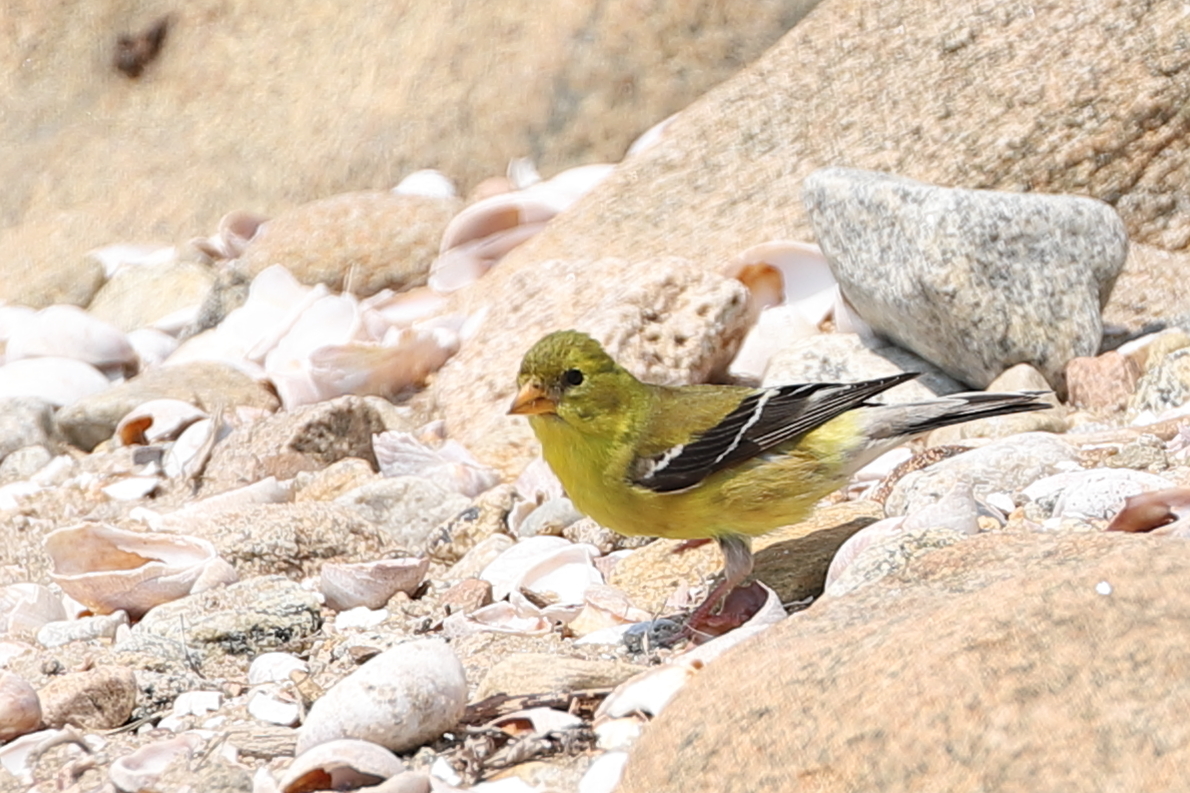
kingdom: Animalia
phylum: Chordata
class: Aves
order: Passeriformes
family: Fringillidae
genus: Spinus
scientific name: Spinus tristis
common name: American goldfinch
